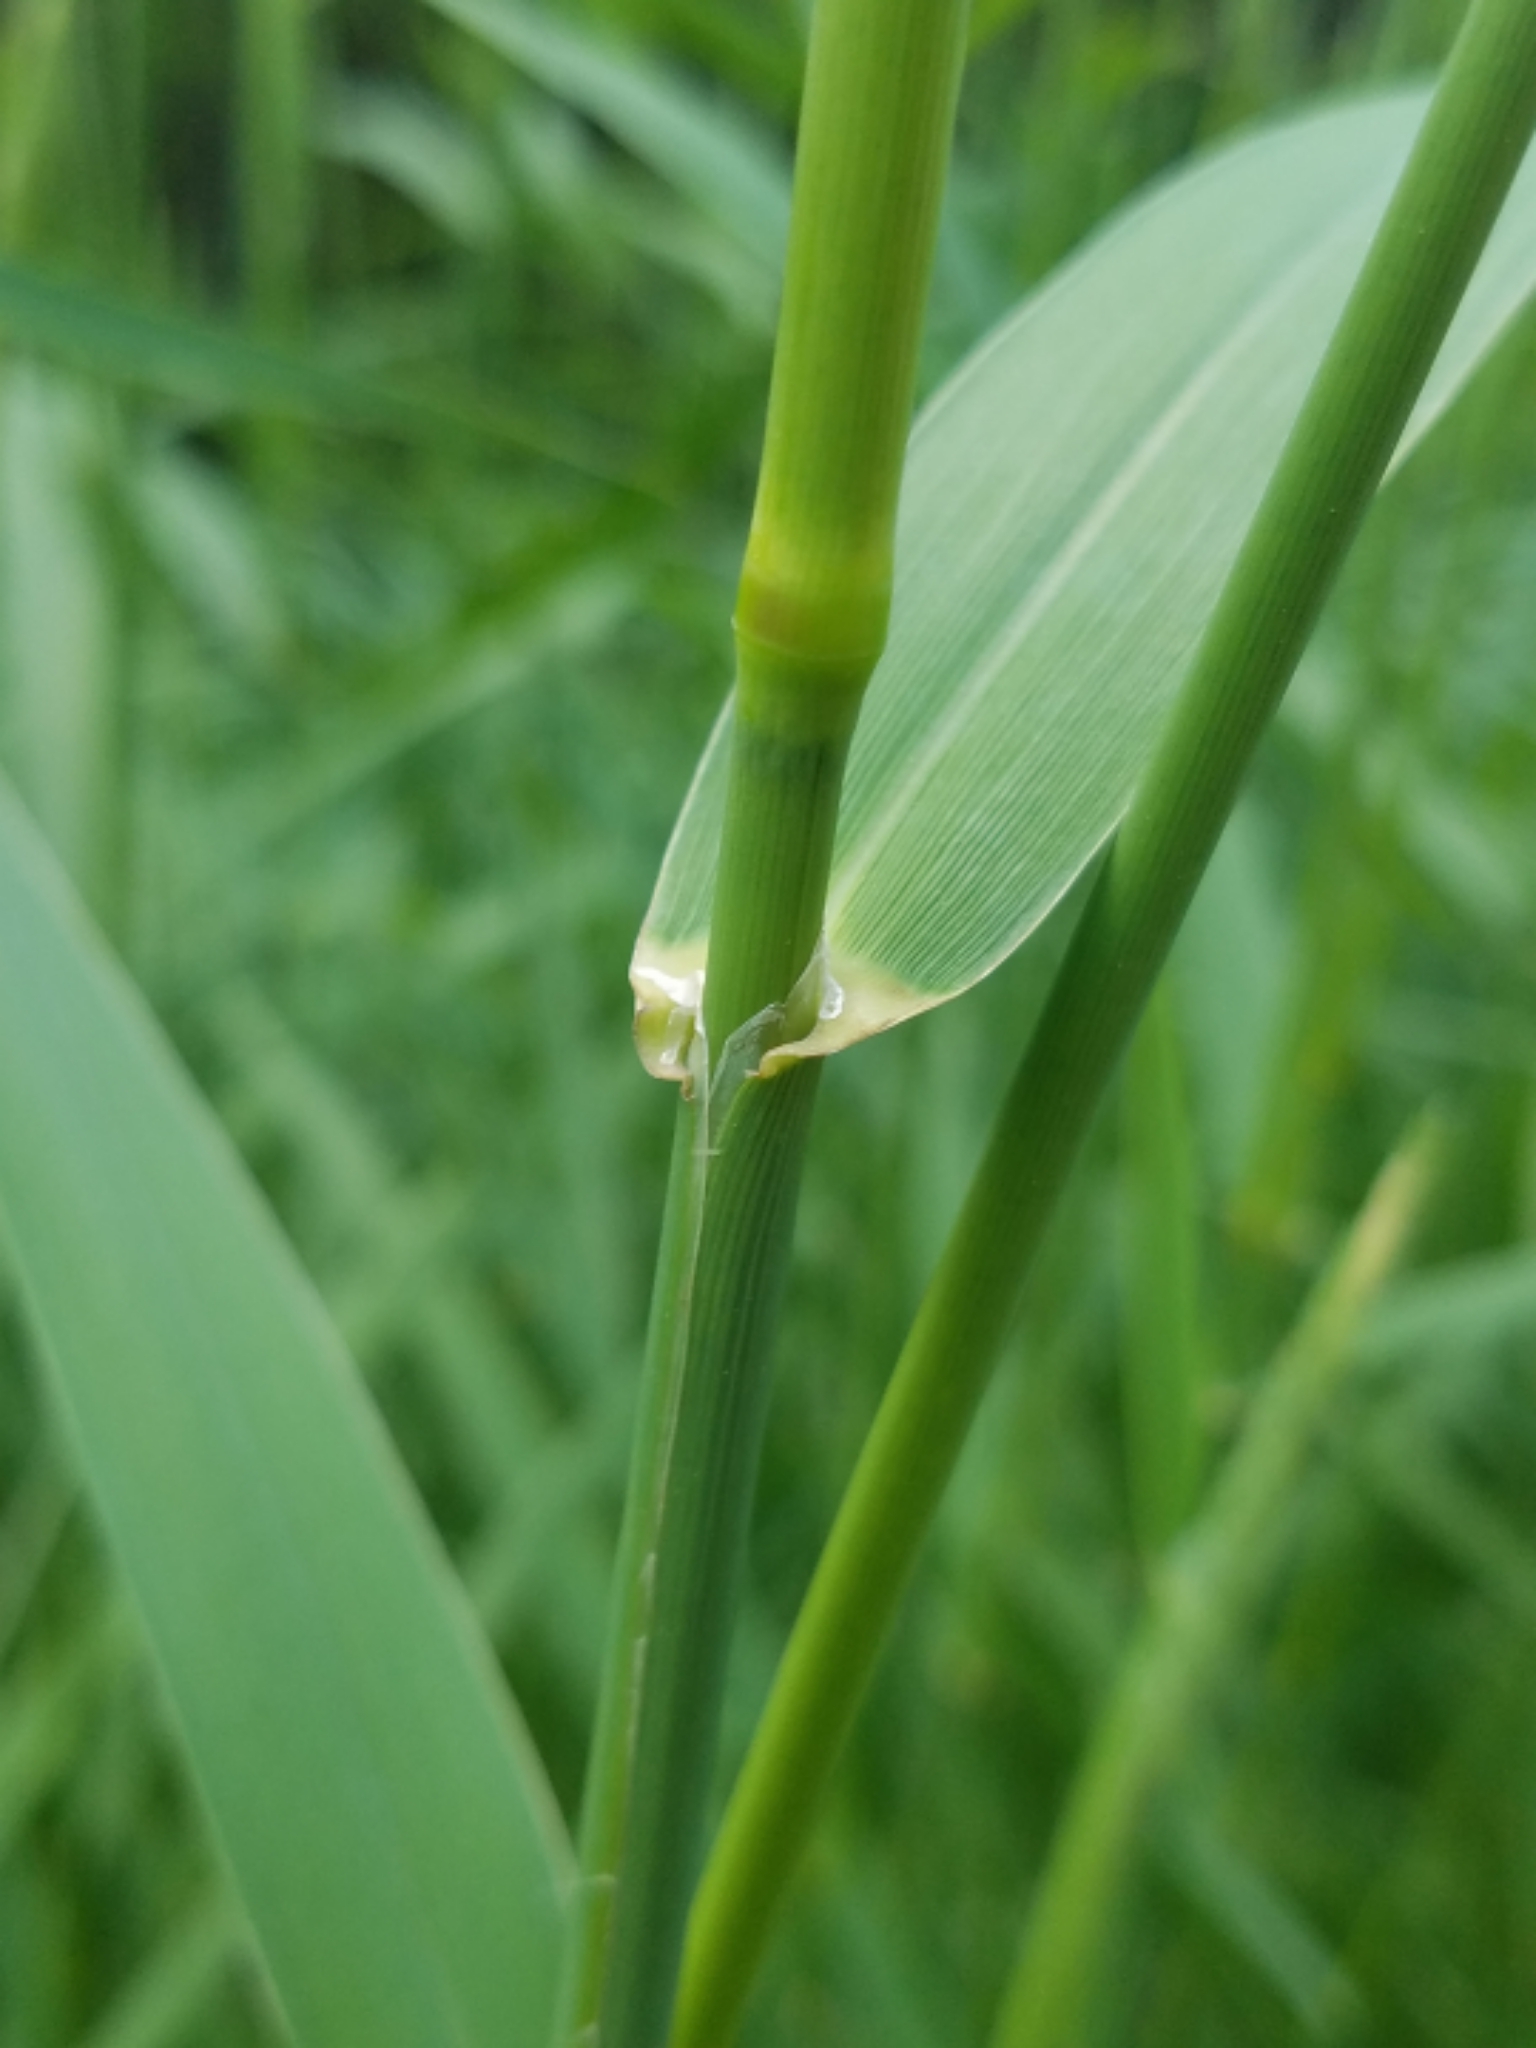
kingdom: Plantae
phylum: Tracheophyta
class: Liliopsida
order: Poales
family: Poaceae
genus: Phalaris
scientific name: Phalaris arundinacea
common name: Reed canary-grass
